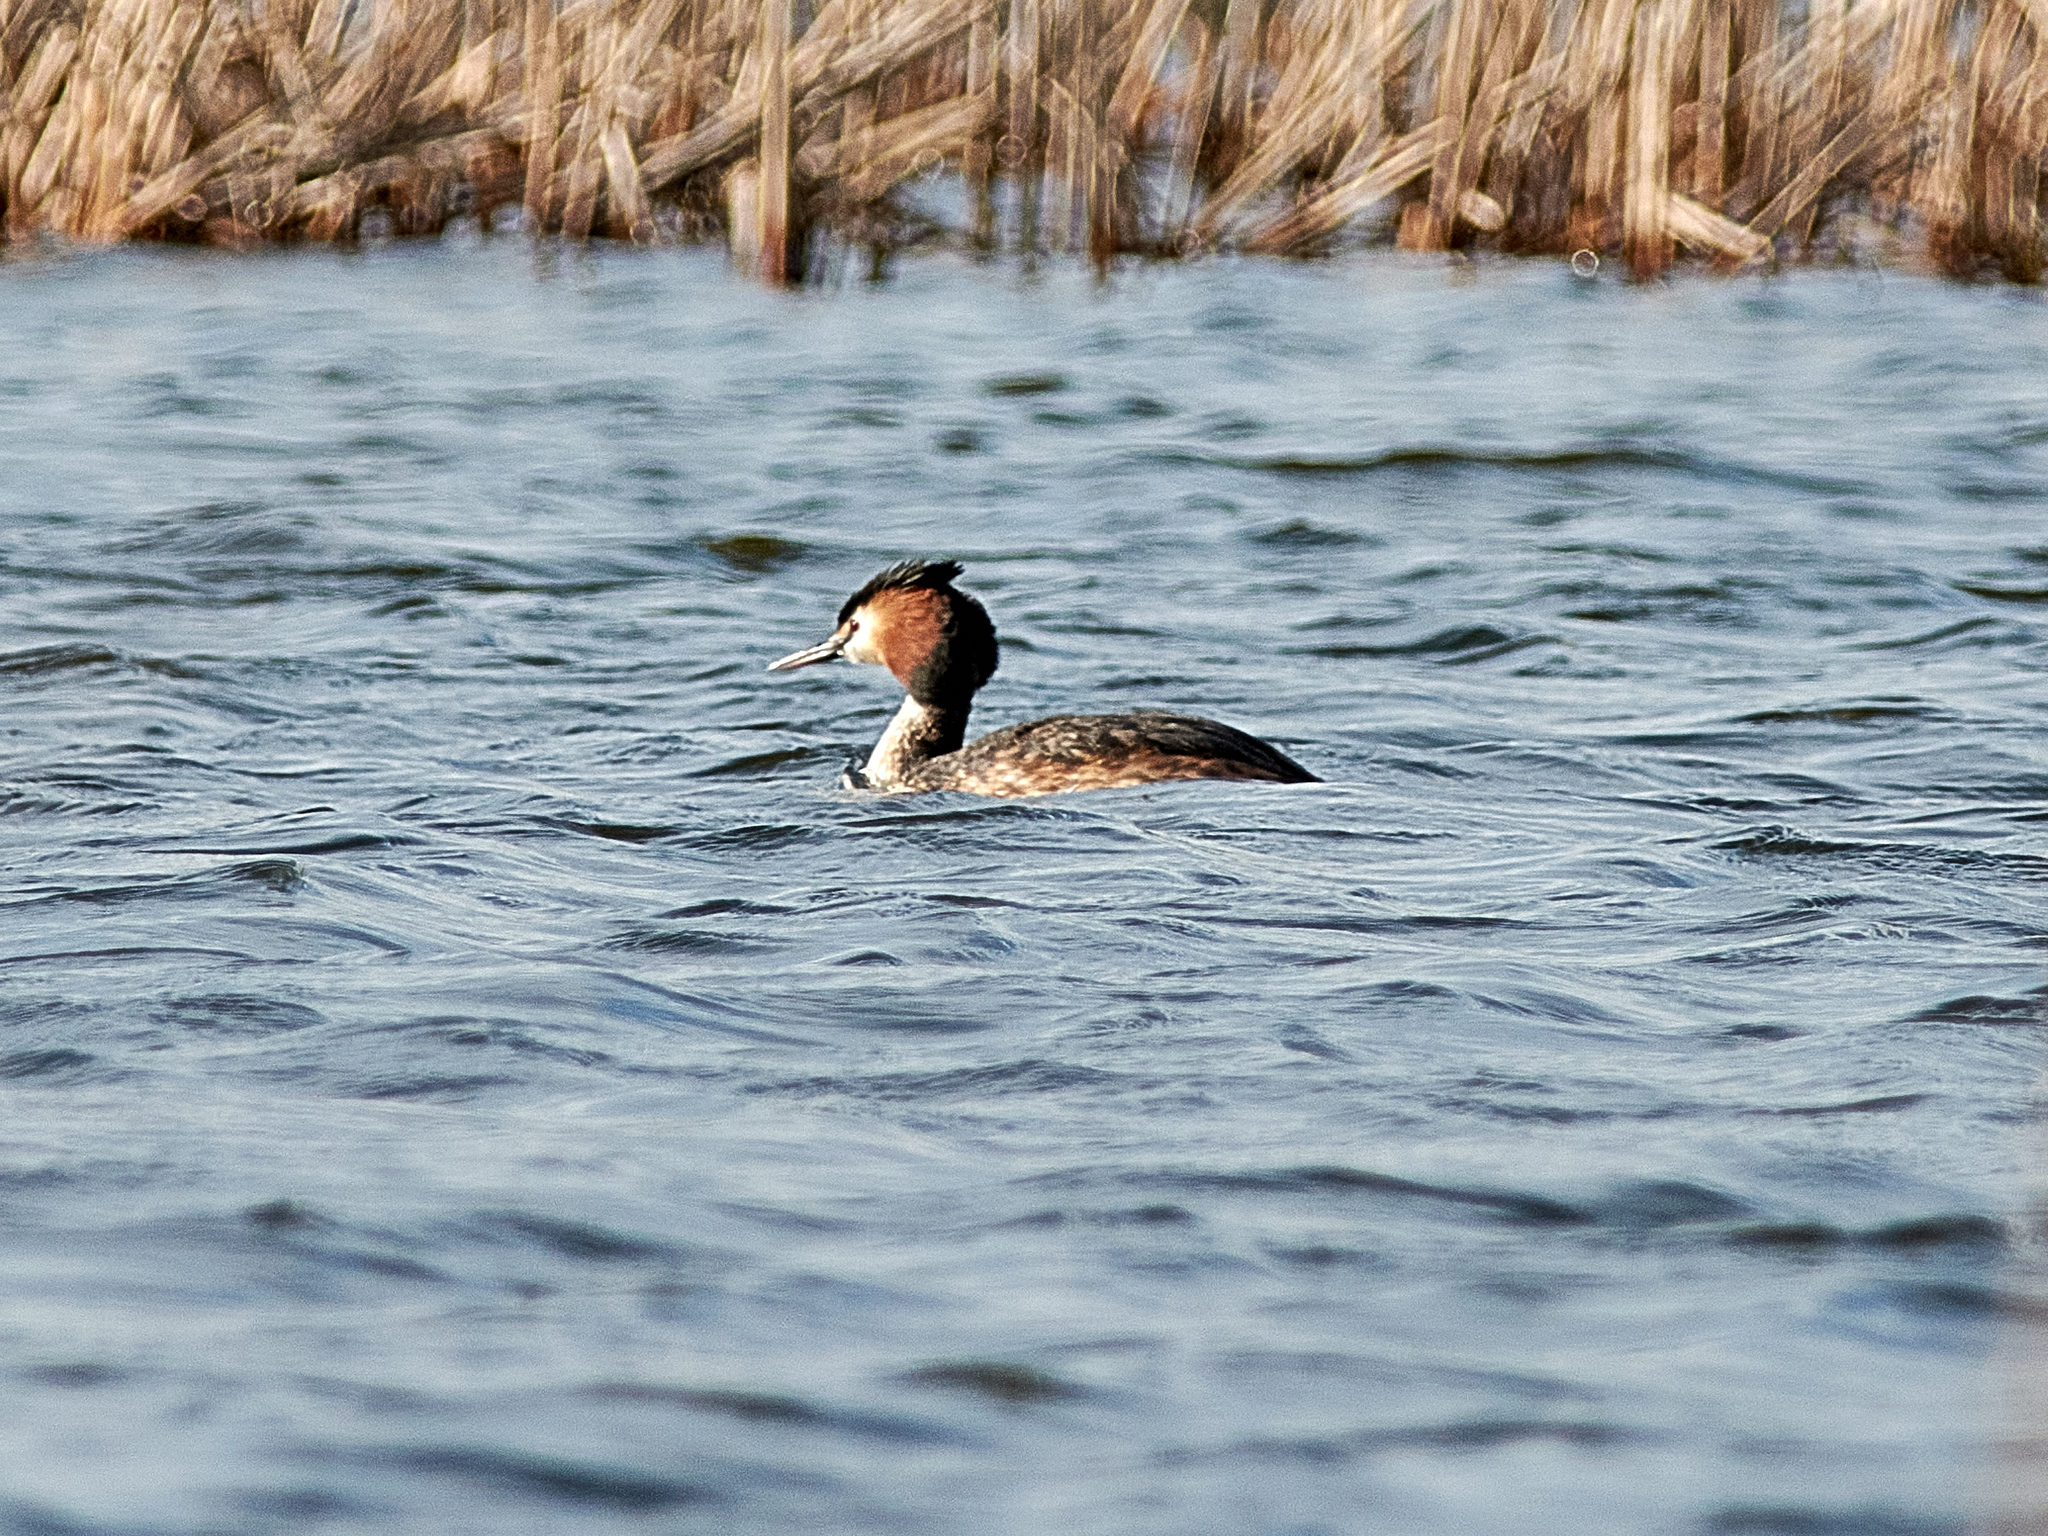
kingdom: Animalia
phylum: Chordata
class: Aves
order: Podicipediformes
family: Podicipedidae
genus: Podiceps
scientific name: Podiceps cristatus
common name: Great crested grebe
